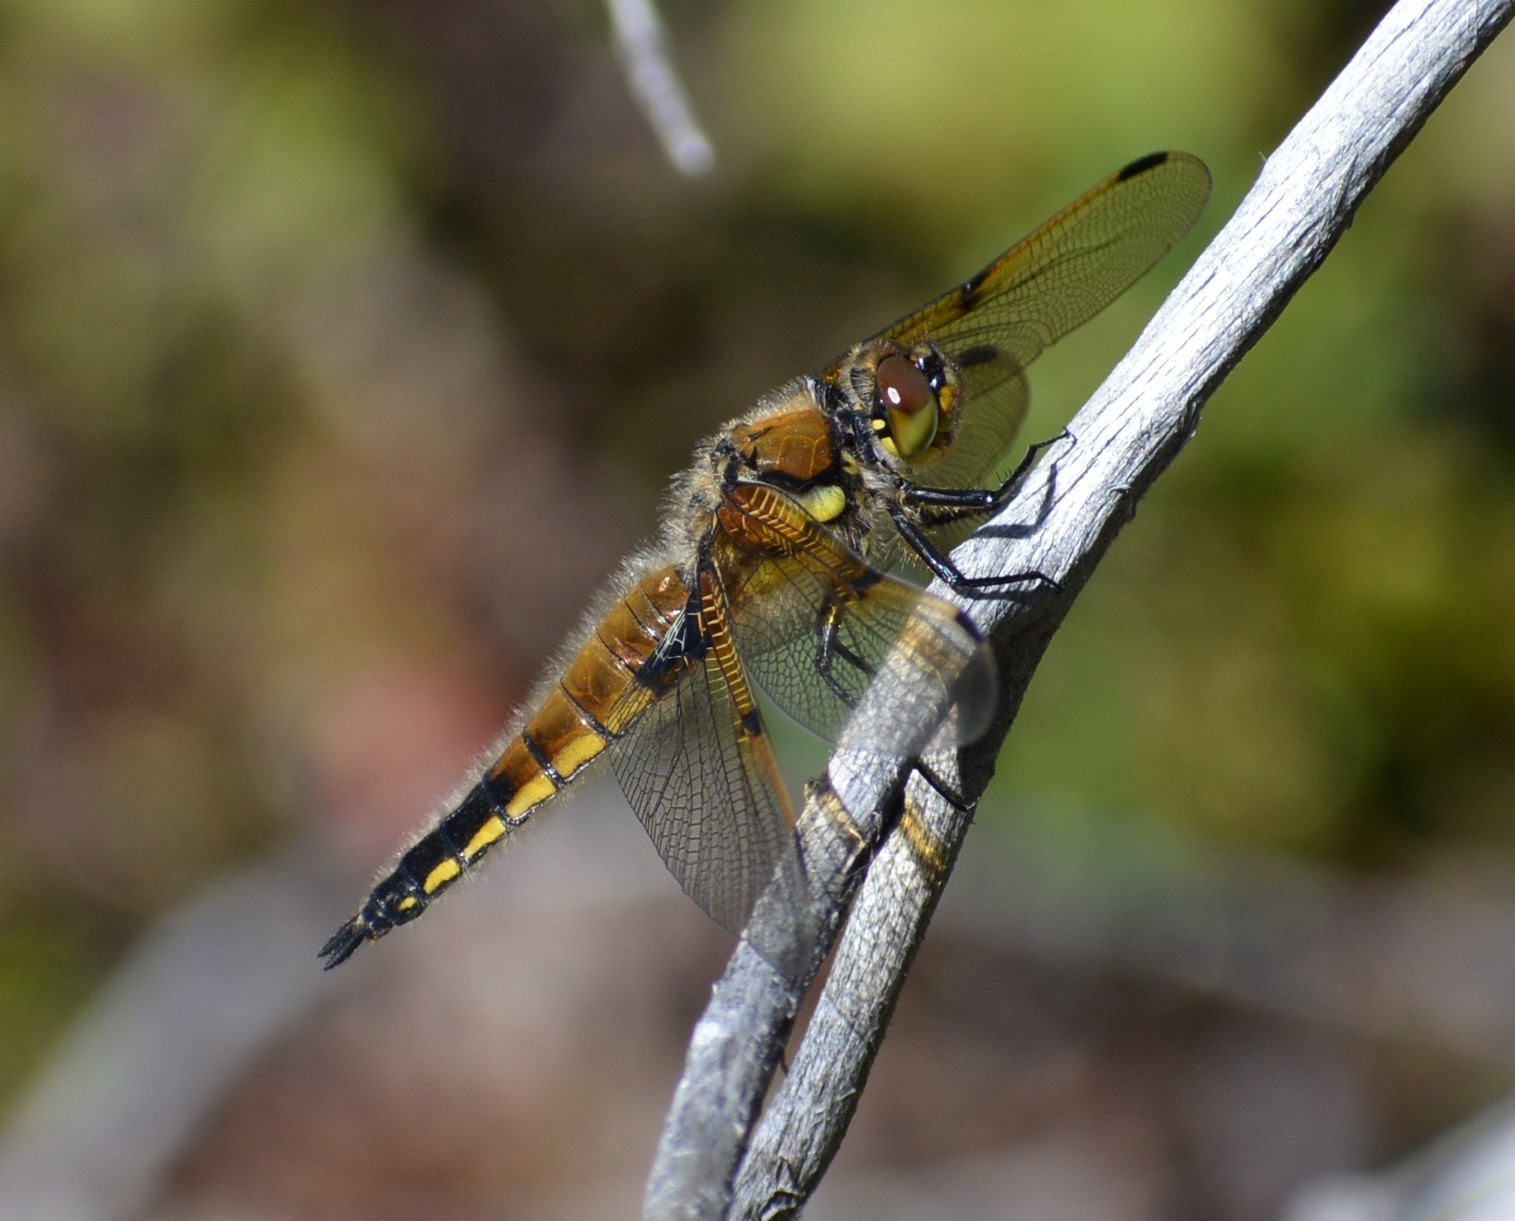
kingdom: Animalia
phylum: Arthropoda
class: Insecta
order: Odonata
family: Libellulidae
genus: Libellula
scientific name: Libellula quadrimaculata
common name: Four-spotted chaser
